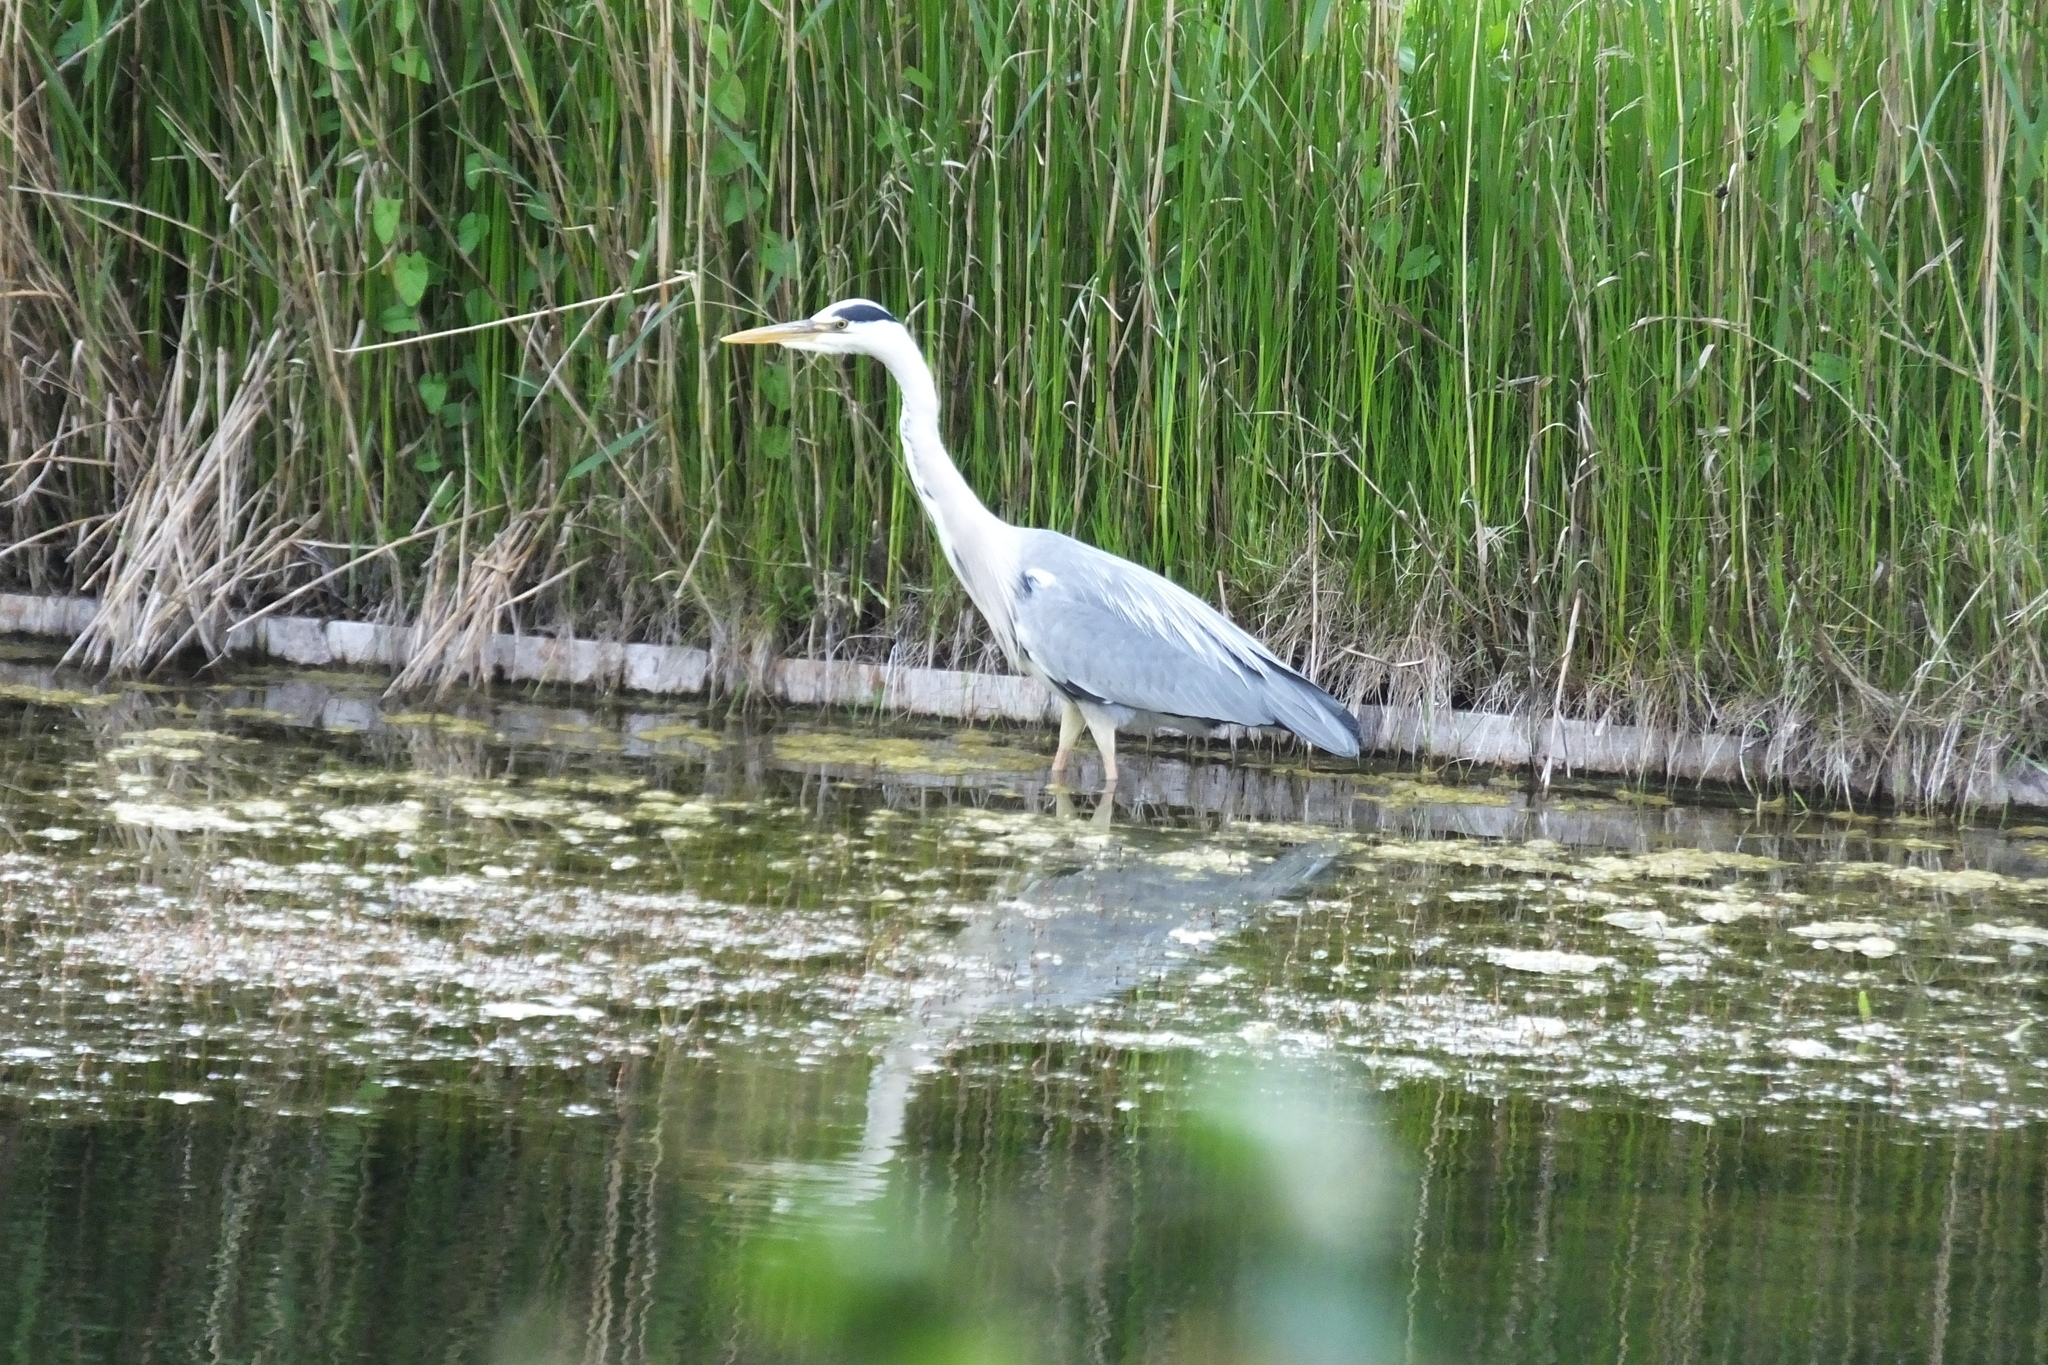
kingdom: Animalia
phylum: Chordata
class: Aves
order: Pelecaniformes
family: Ardeidae
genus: Ardea
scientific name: Ardea cinerea
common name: Grey heron
